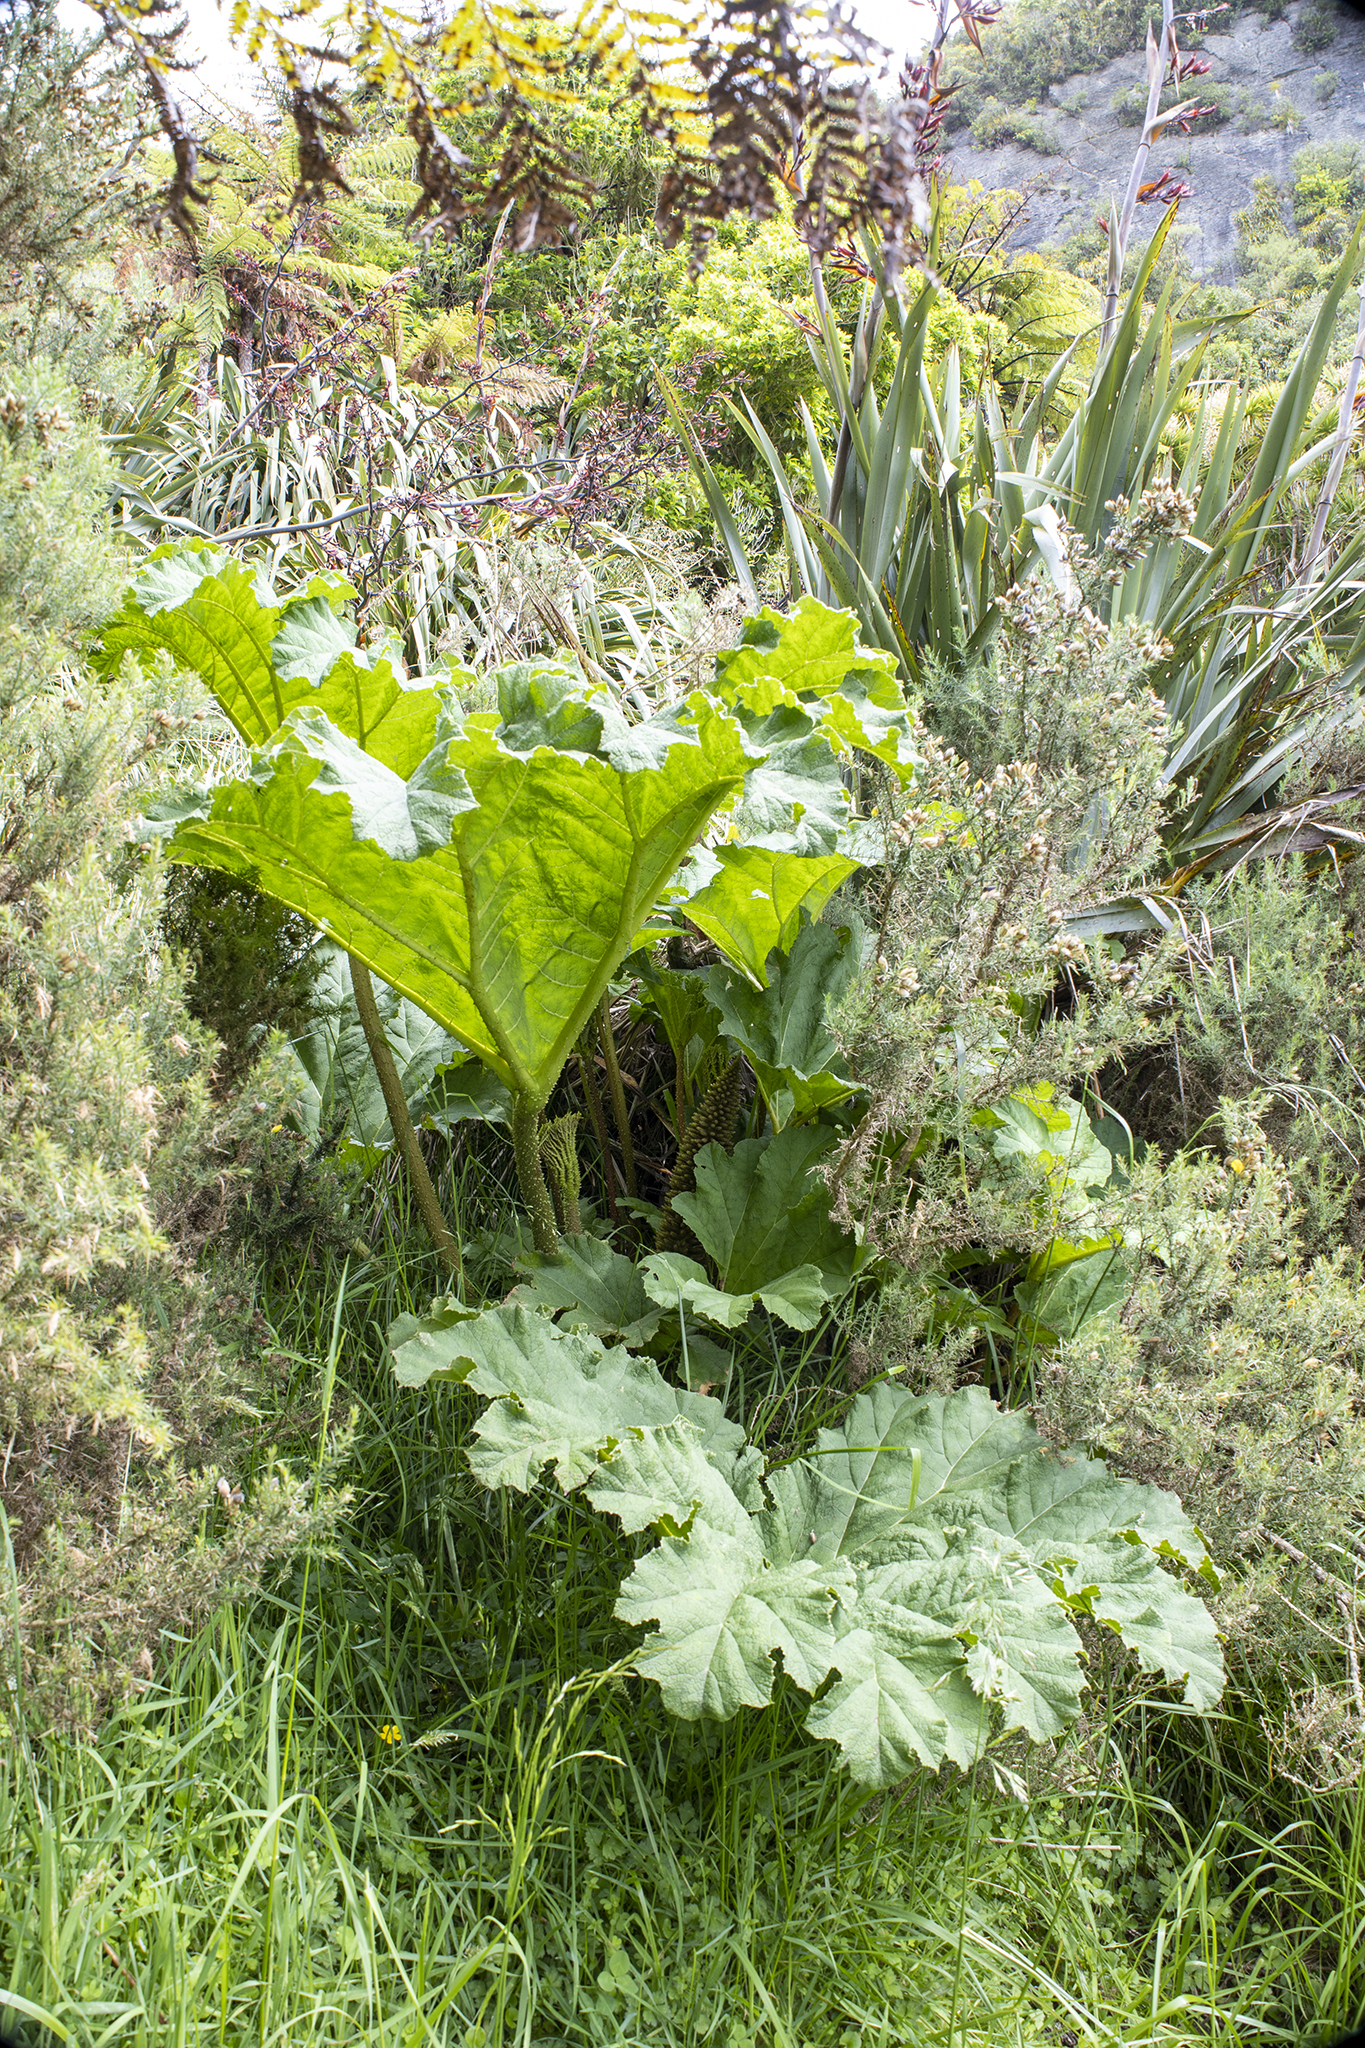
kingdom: Plantae
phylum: Tracheophyta
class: Magnoliopsida
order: Gunnerales
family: Gunneraceae
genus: Gunnera
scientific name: Gunnera tinctoria
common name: Giant-rhubarb
